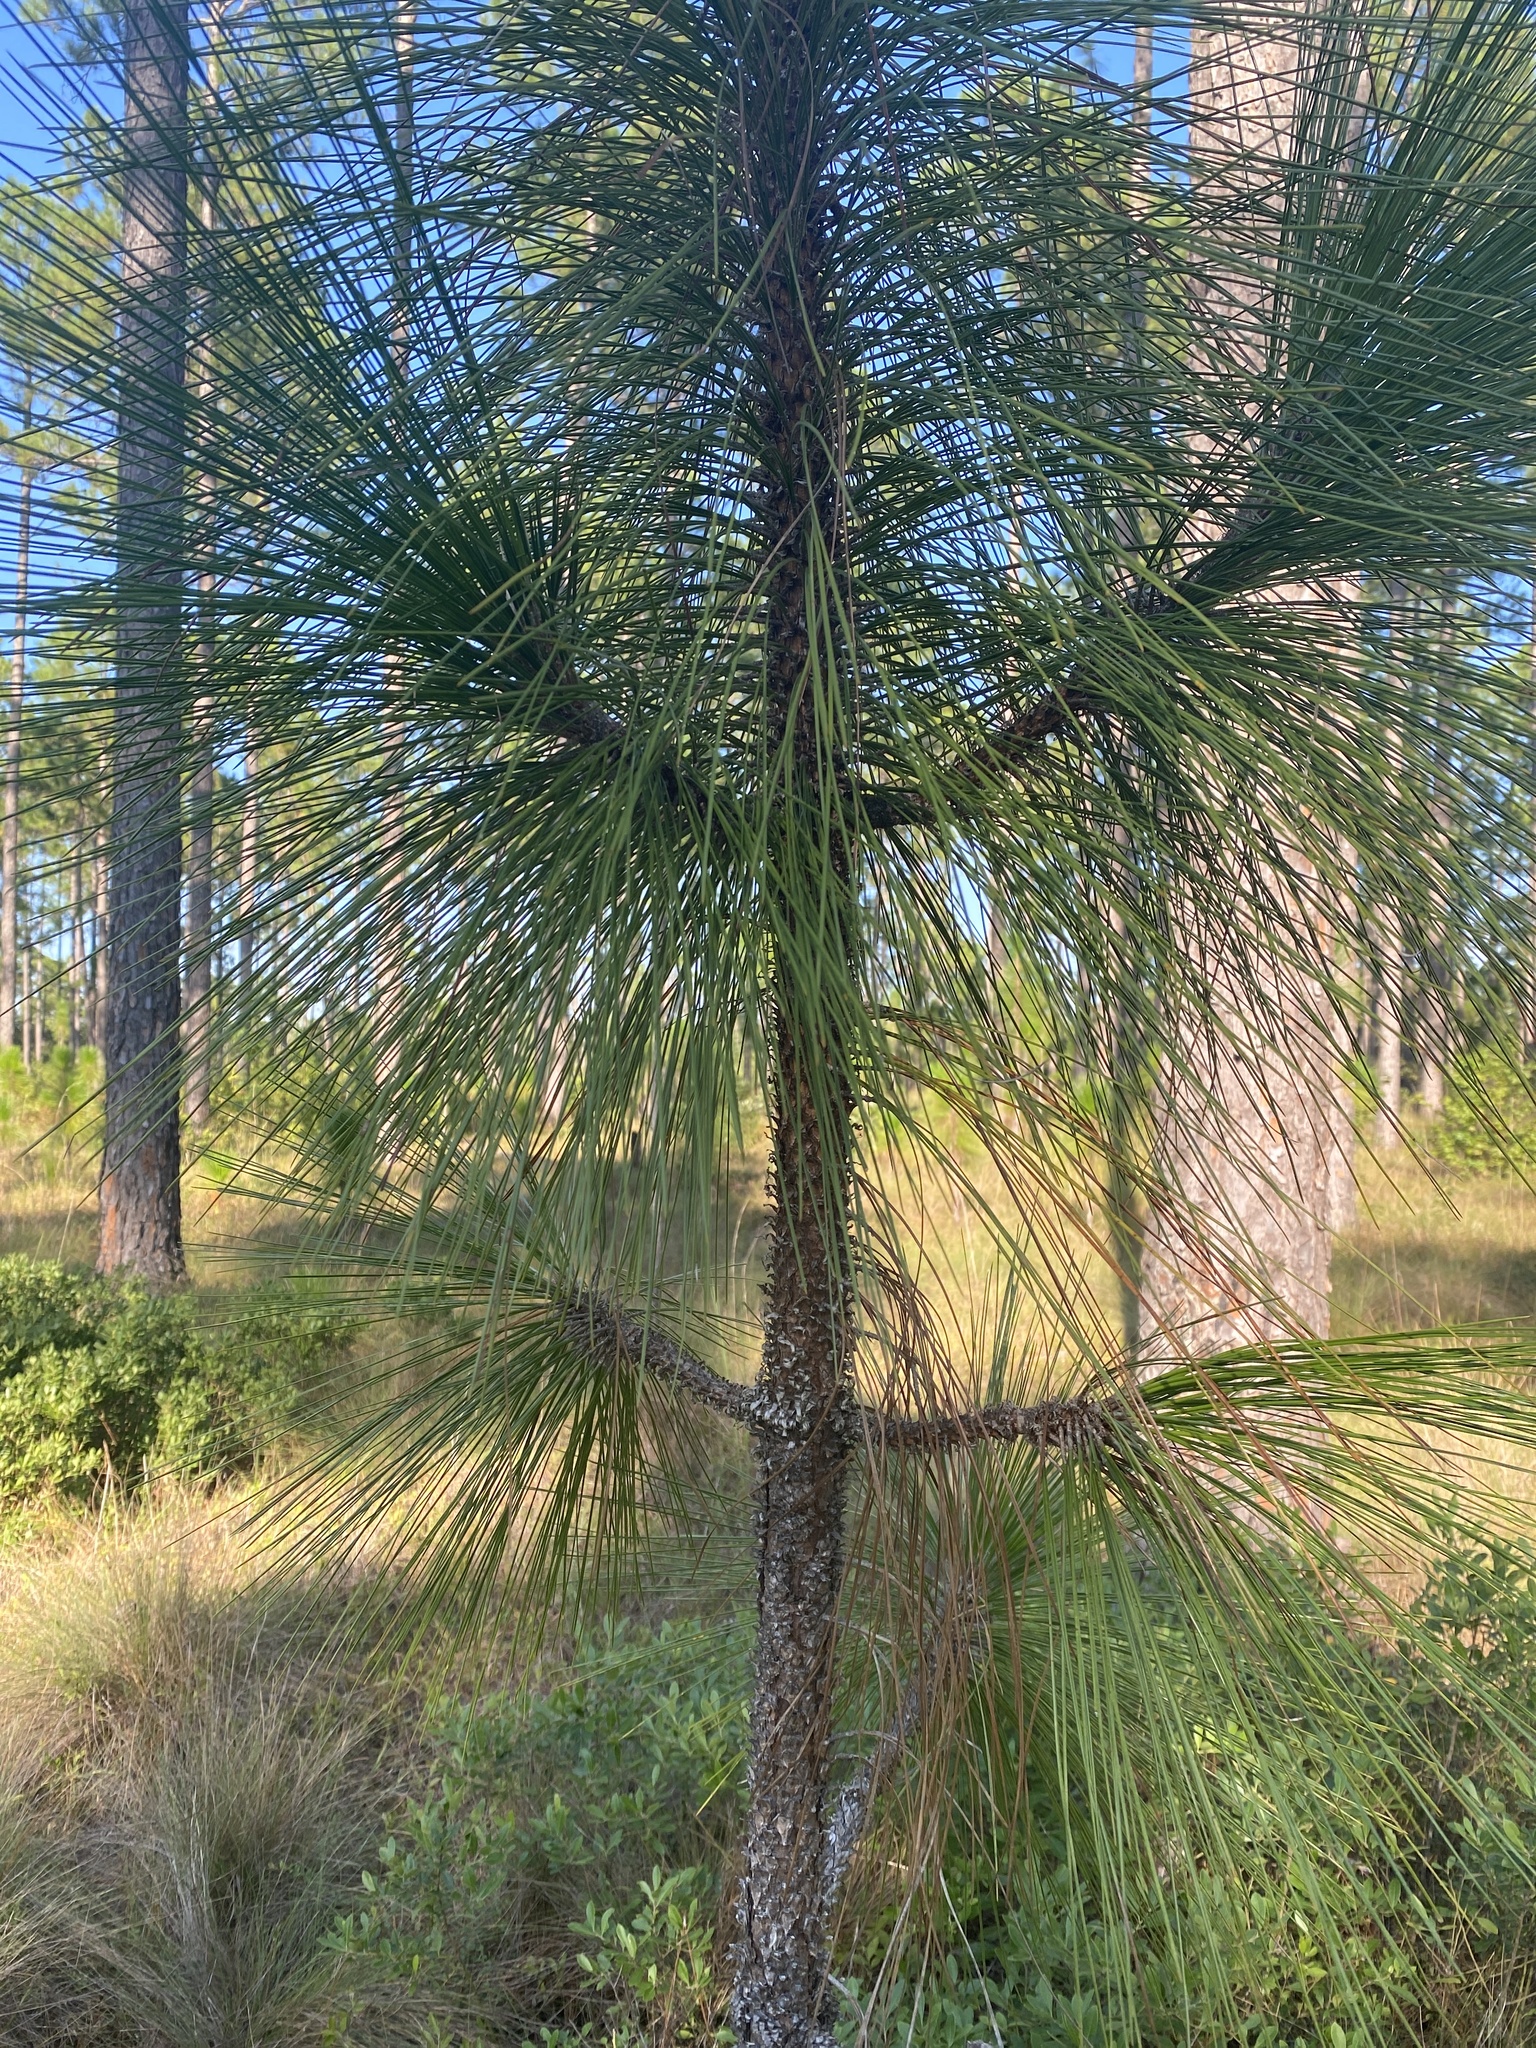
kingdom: Plantae
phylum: Tracheophyta
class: Pinopsida
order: Pinales
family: Pinaceae
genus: Pinus
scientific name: Pinus palustris
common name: Longleaf pine
